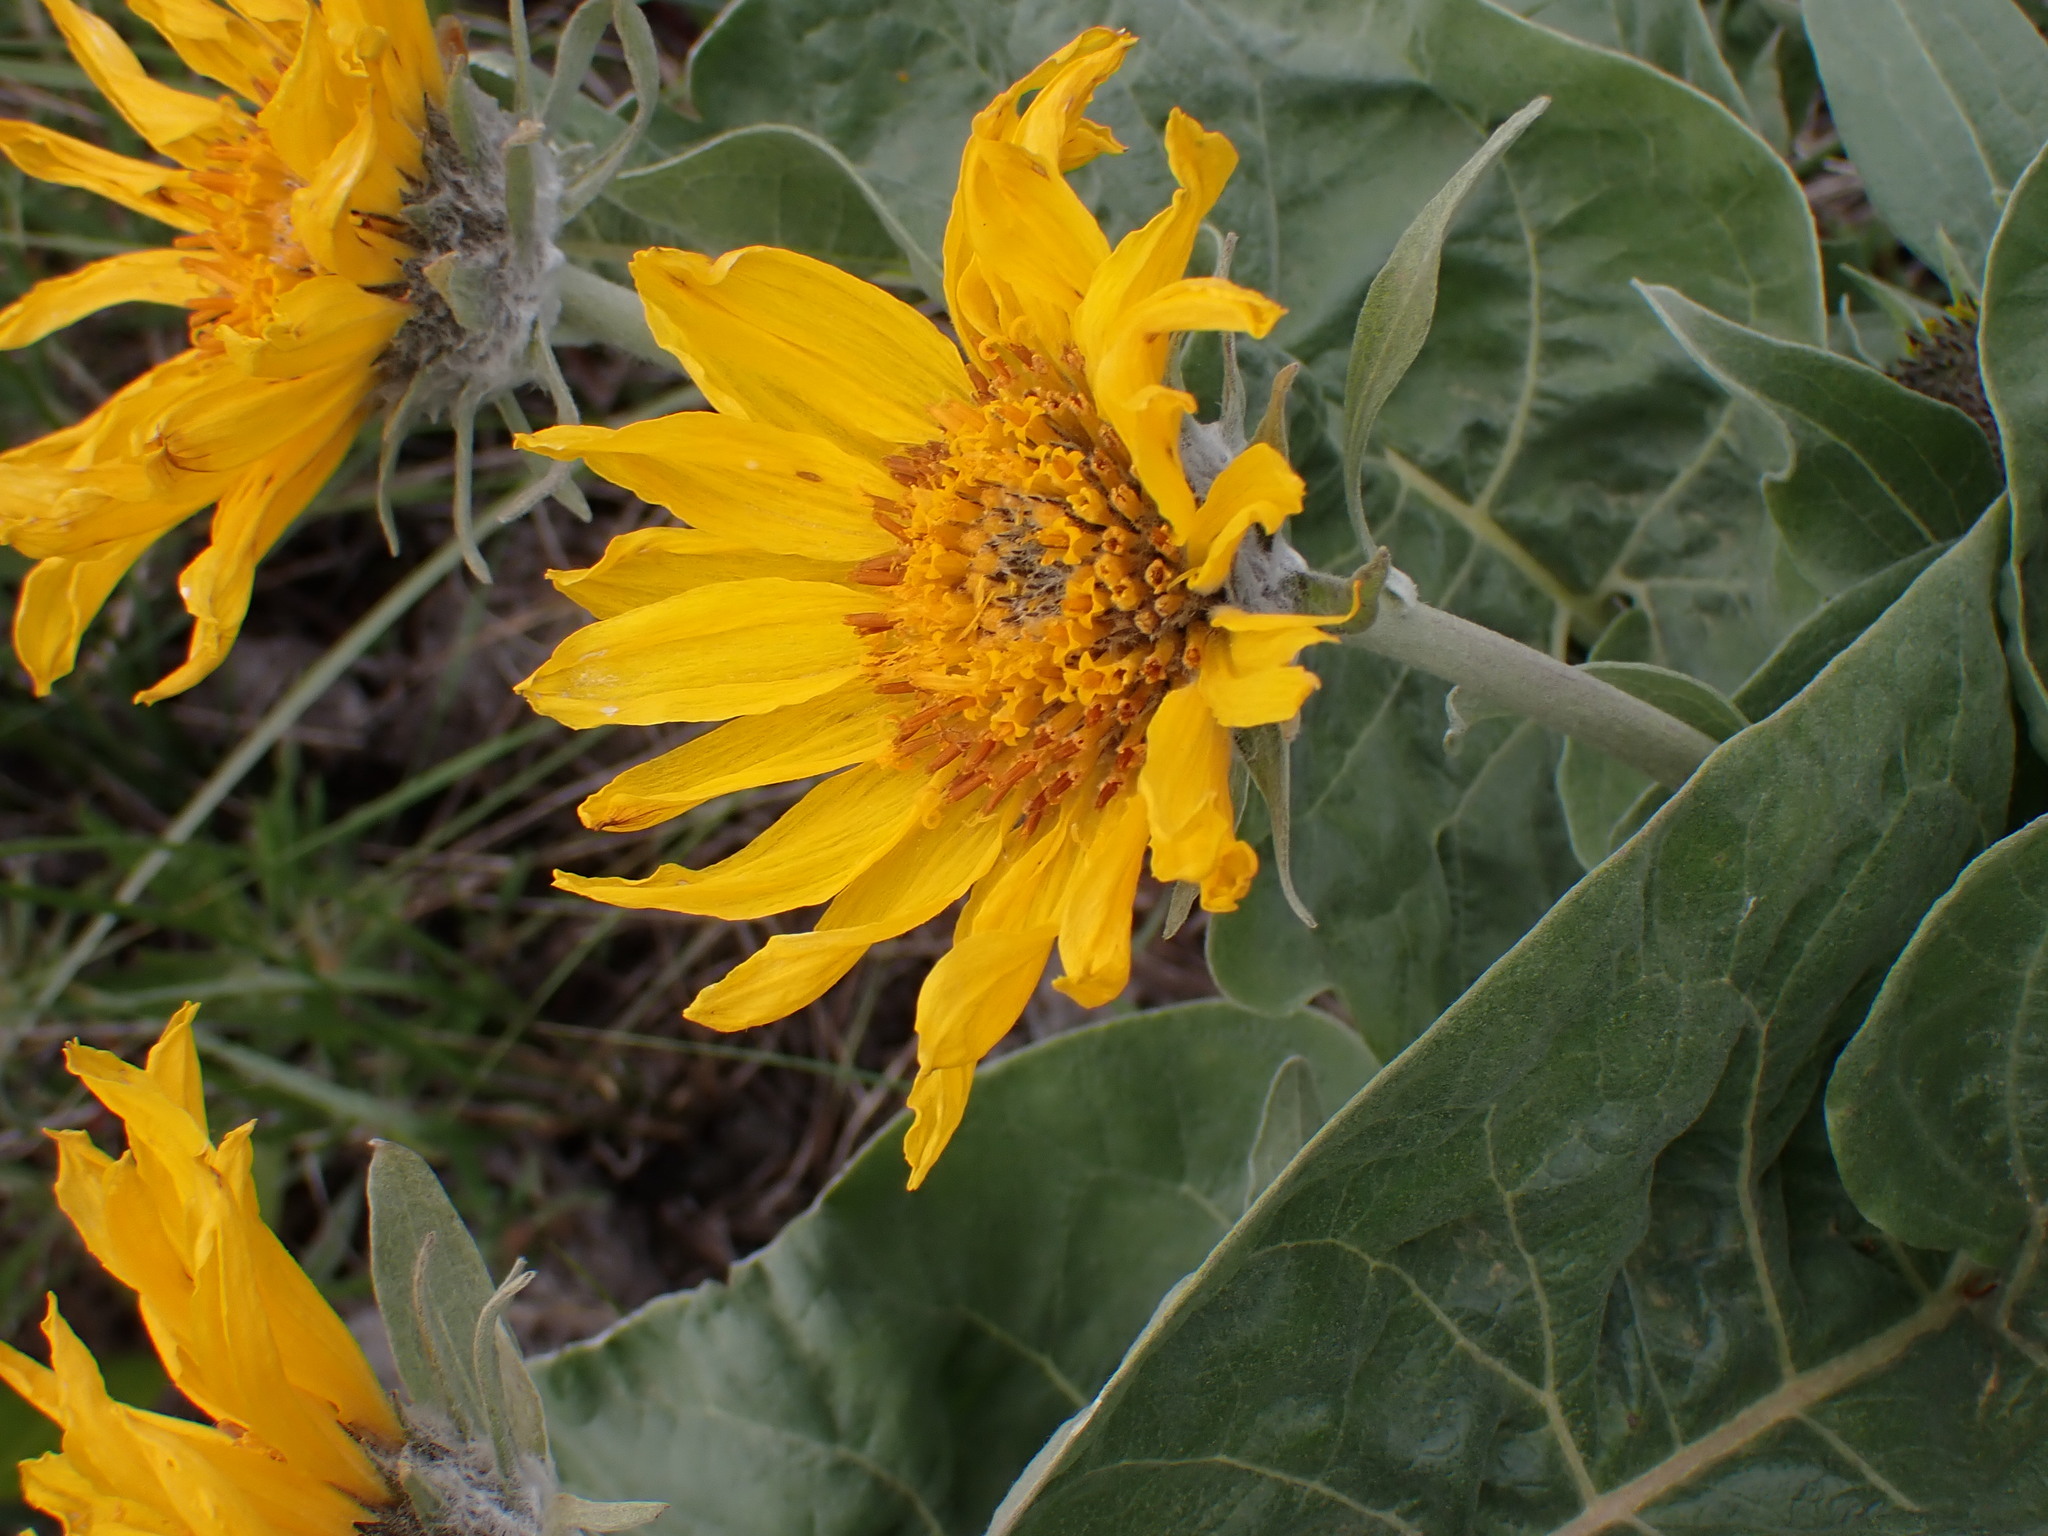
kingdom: Plantae
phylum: Tracheophyta
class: Magnoliopsida
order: Asterales
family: Asteraceae
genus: Wyethia
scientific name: Wyethia sagittata
